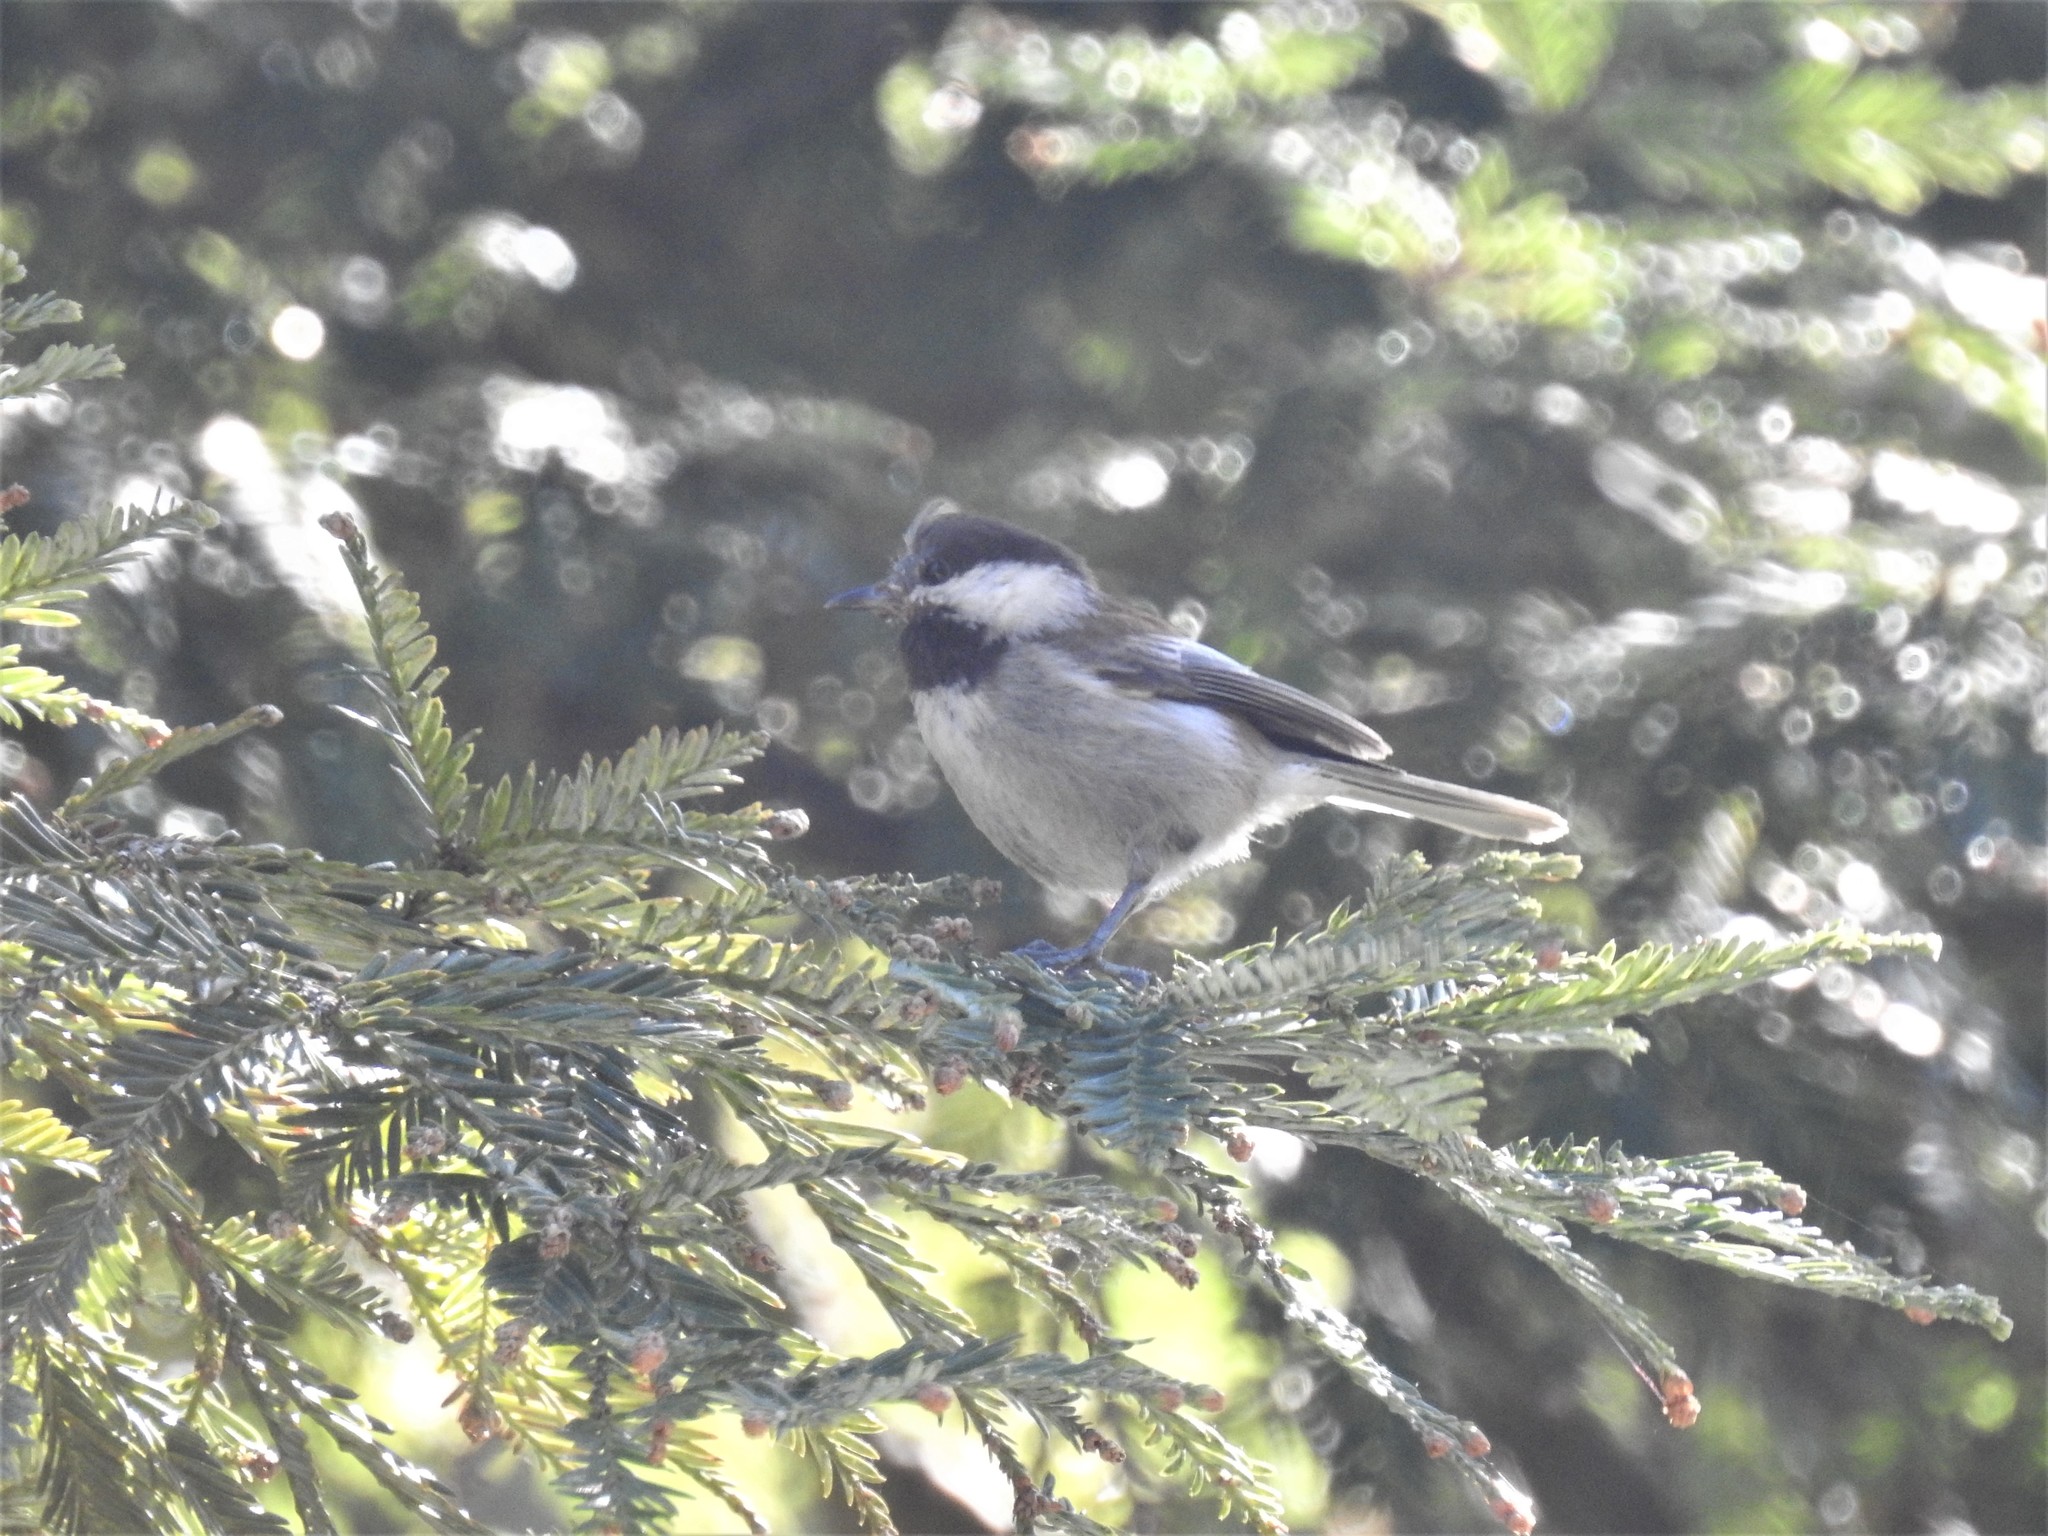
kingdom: Animalia
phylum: Chordata
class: Aves
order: Passeriformes
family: Paridae
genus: Poecile
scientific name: Poecile rufescens
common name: Chestnut-backed chickadee
